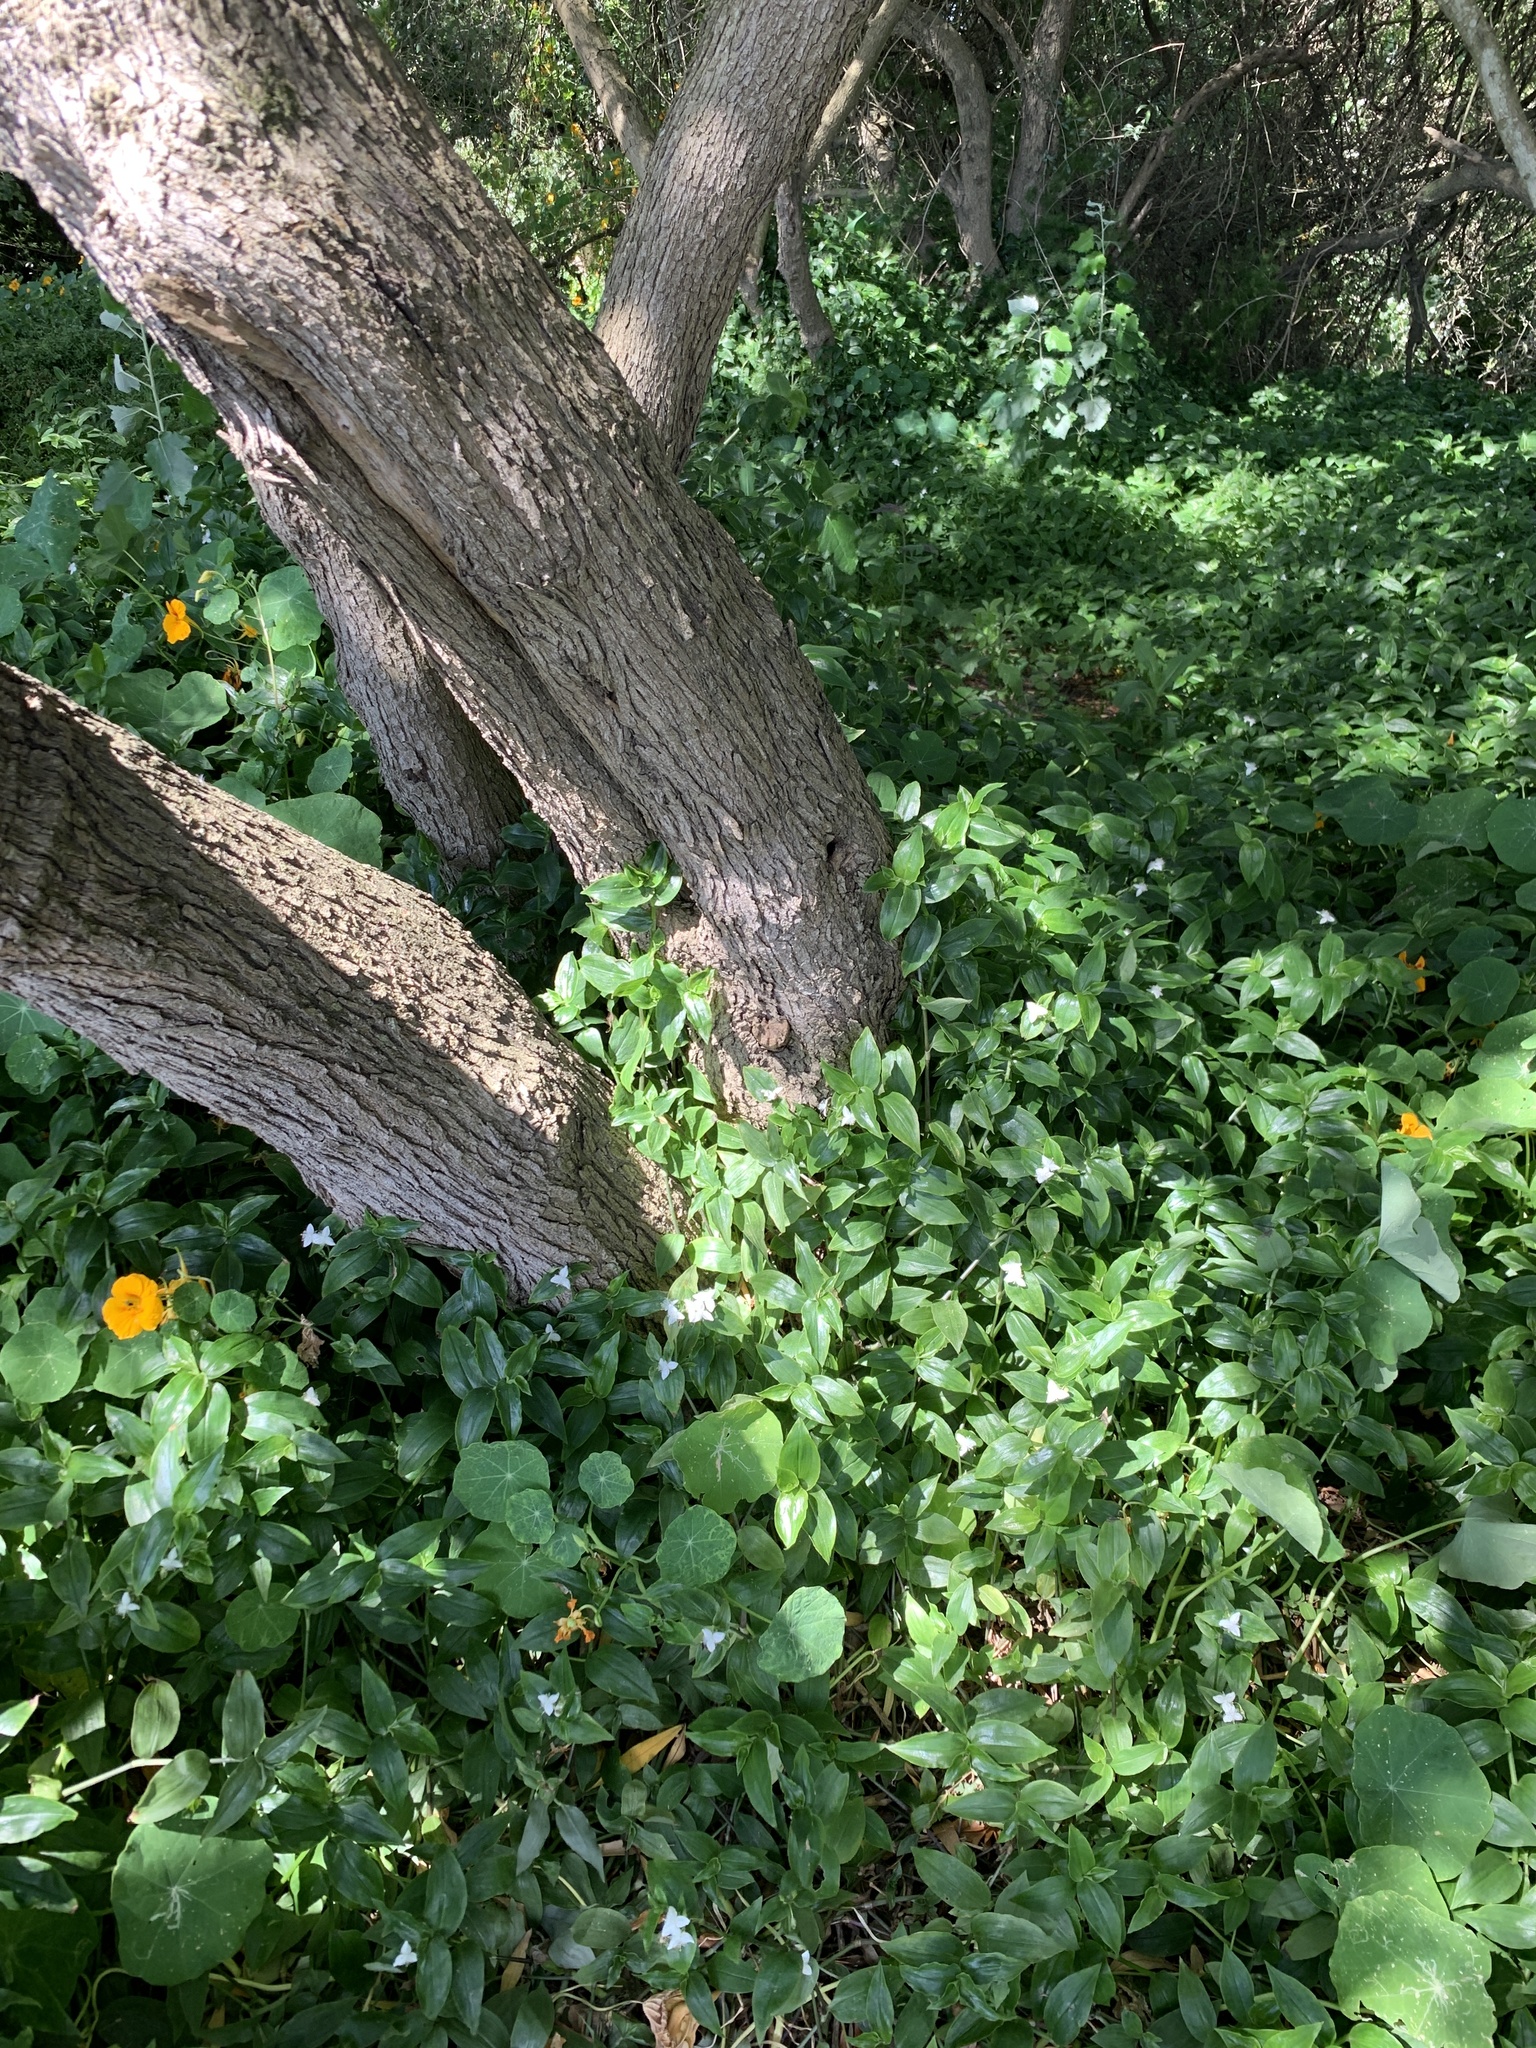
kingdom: Plantae
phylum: Tracheophyta
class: Liliopsida
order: Commelinales
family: Commelinaceae
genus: Tradescantia
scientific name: Tradescantia fluminensis
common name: Wandering-jew
